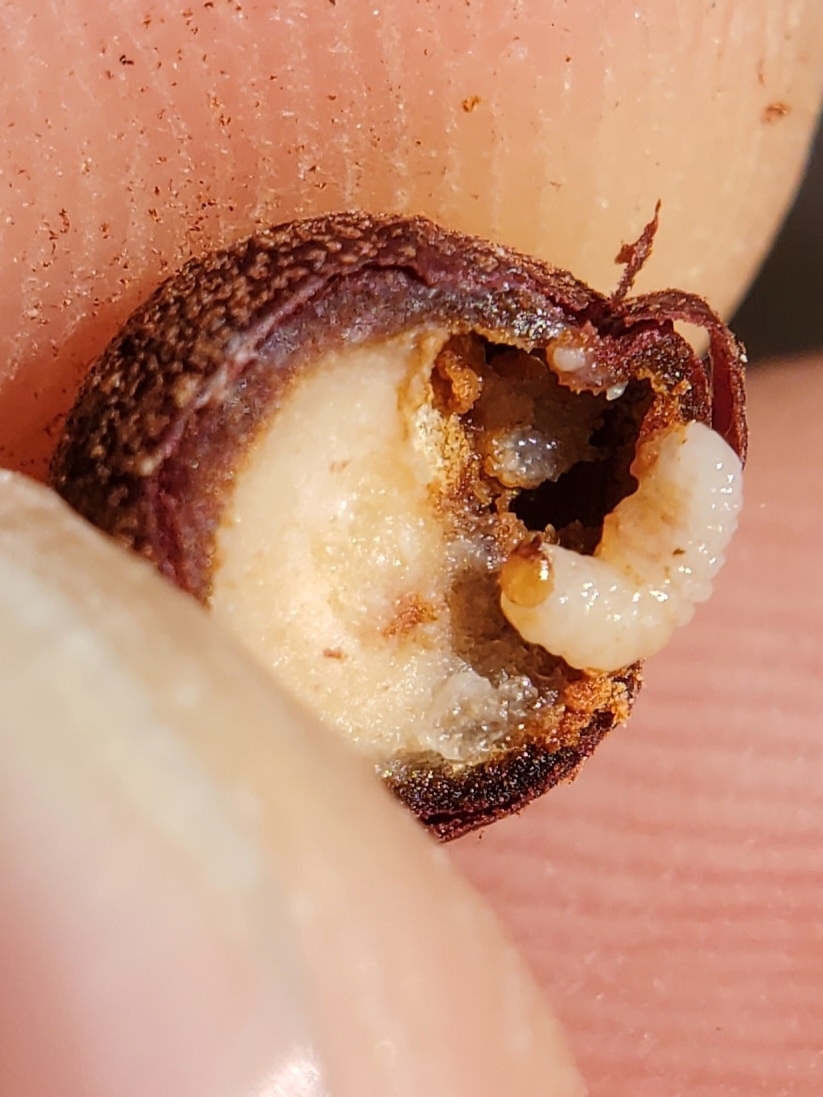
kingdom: Animalia
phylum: Arthropoda
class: Insecta
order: Hymenoptera
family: Cynipidae
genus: Andricus
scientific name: Andricus
